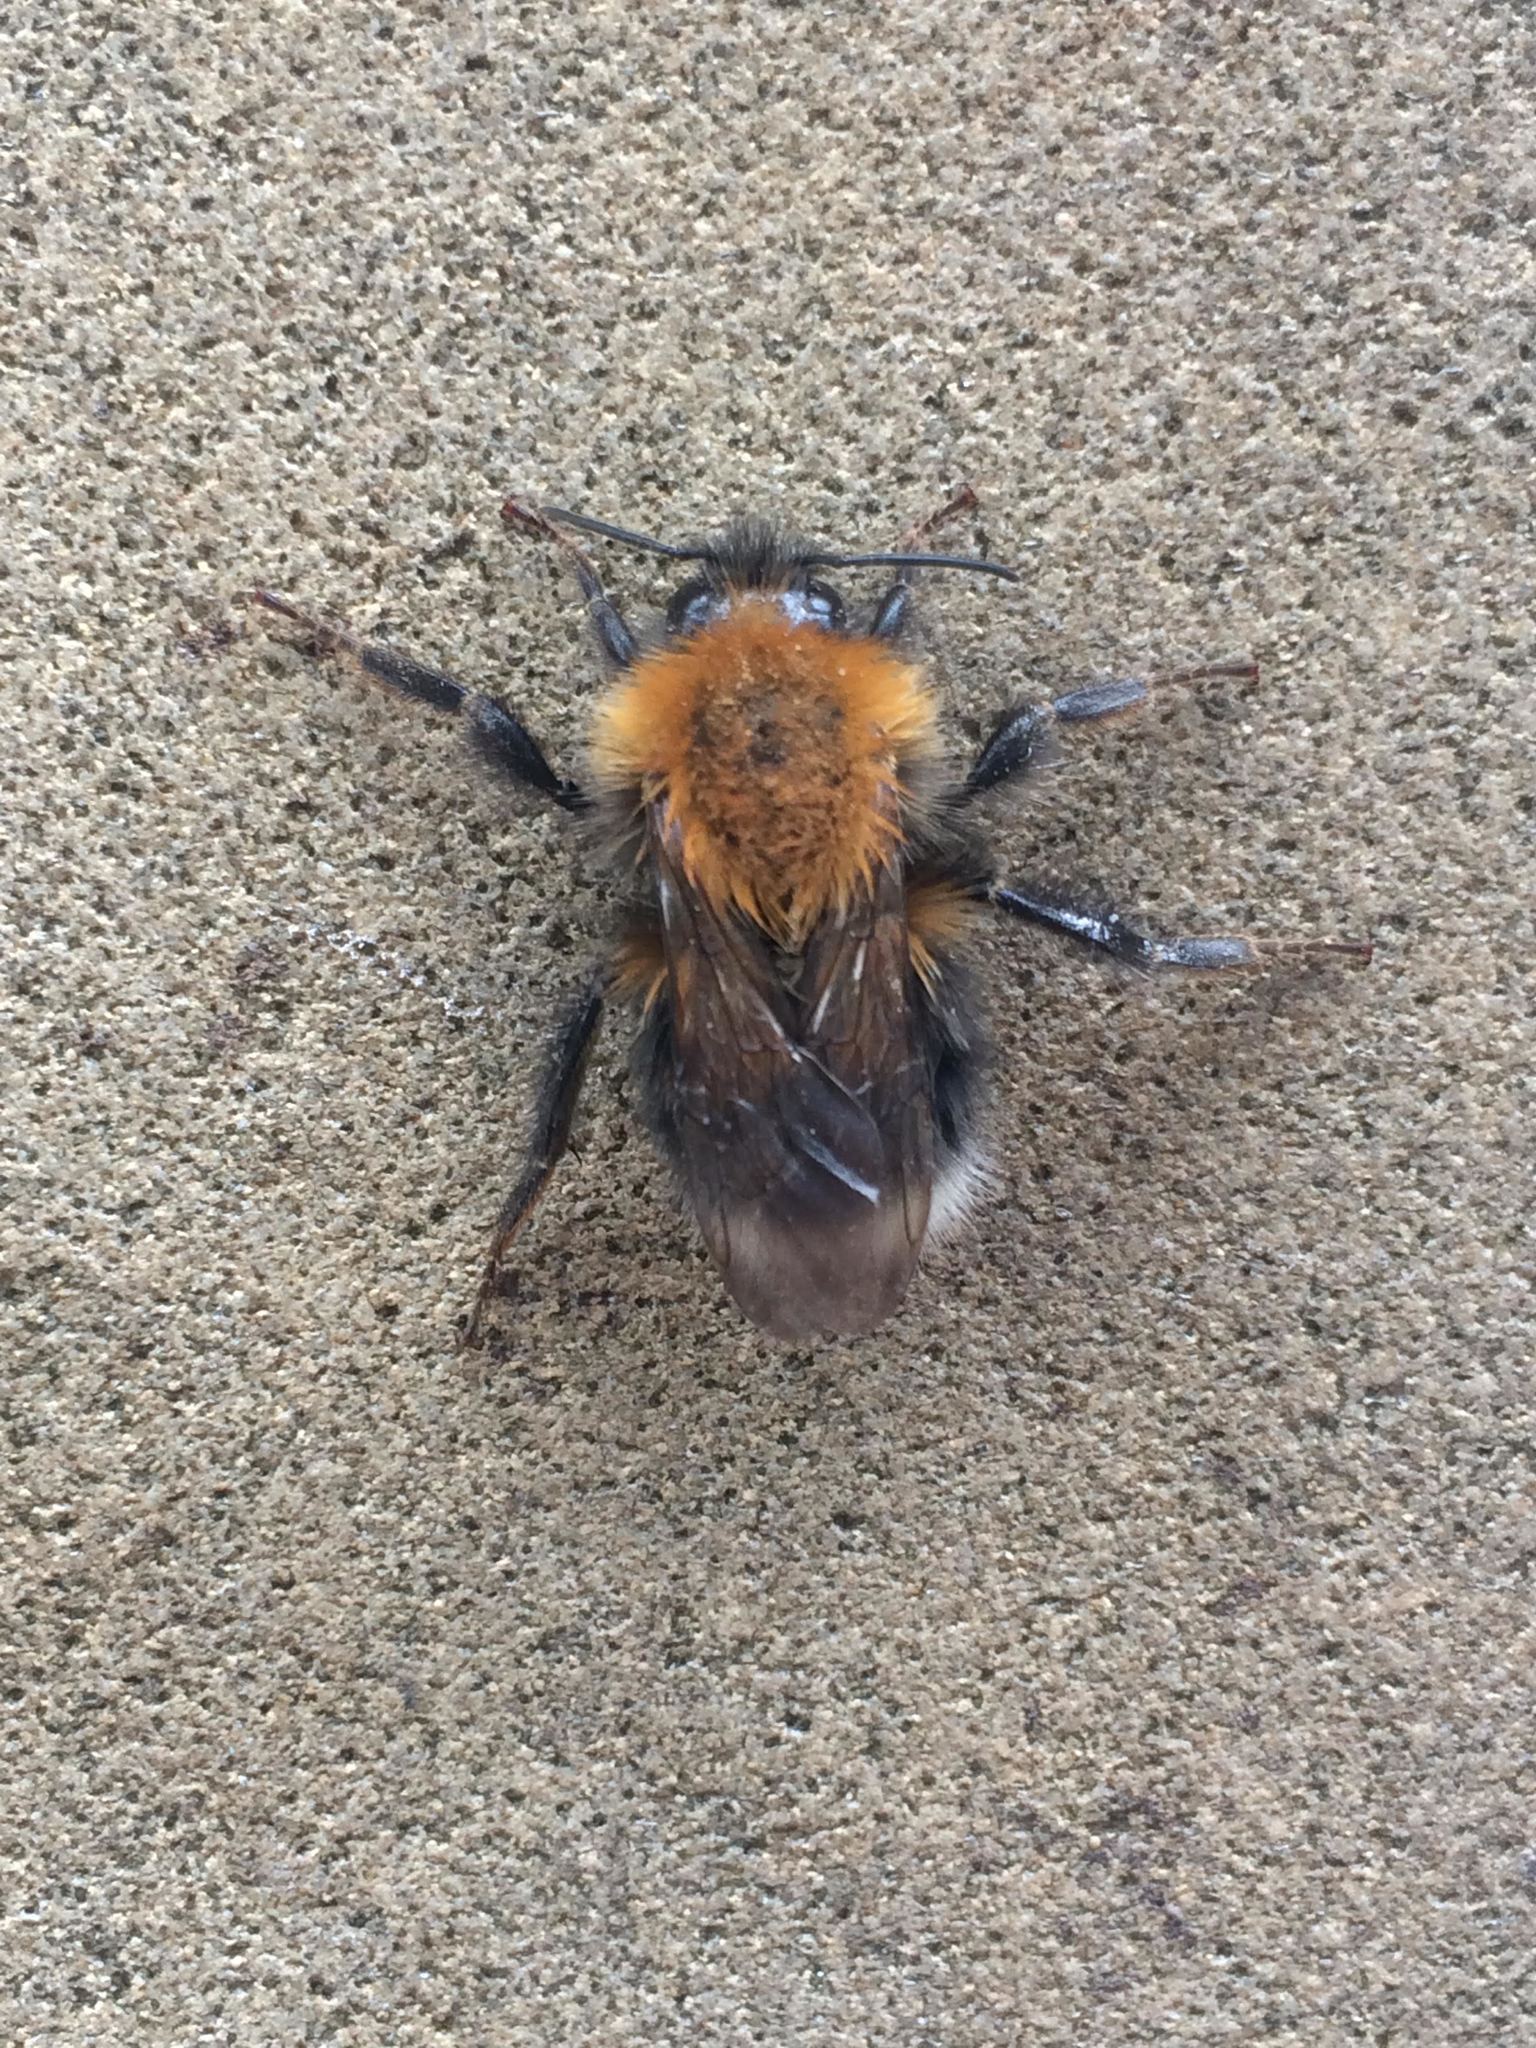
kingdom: Animalia
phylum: Arthropoda
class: Insecta
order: Hymenoptera
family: Apidae
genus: Bombus
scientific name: Bombus hypnorum
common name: New garden bumblebee
